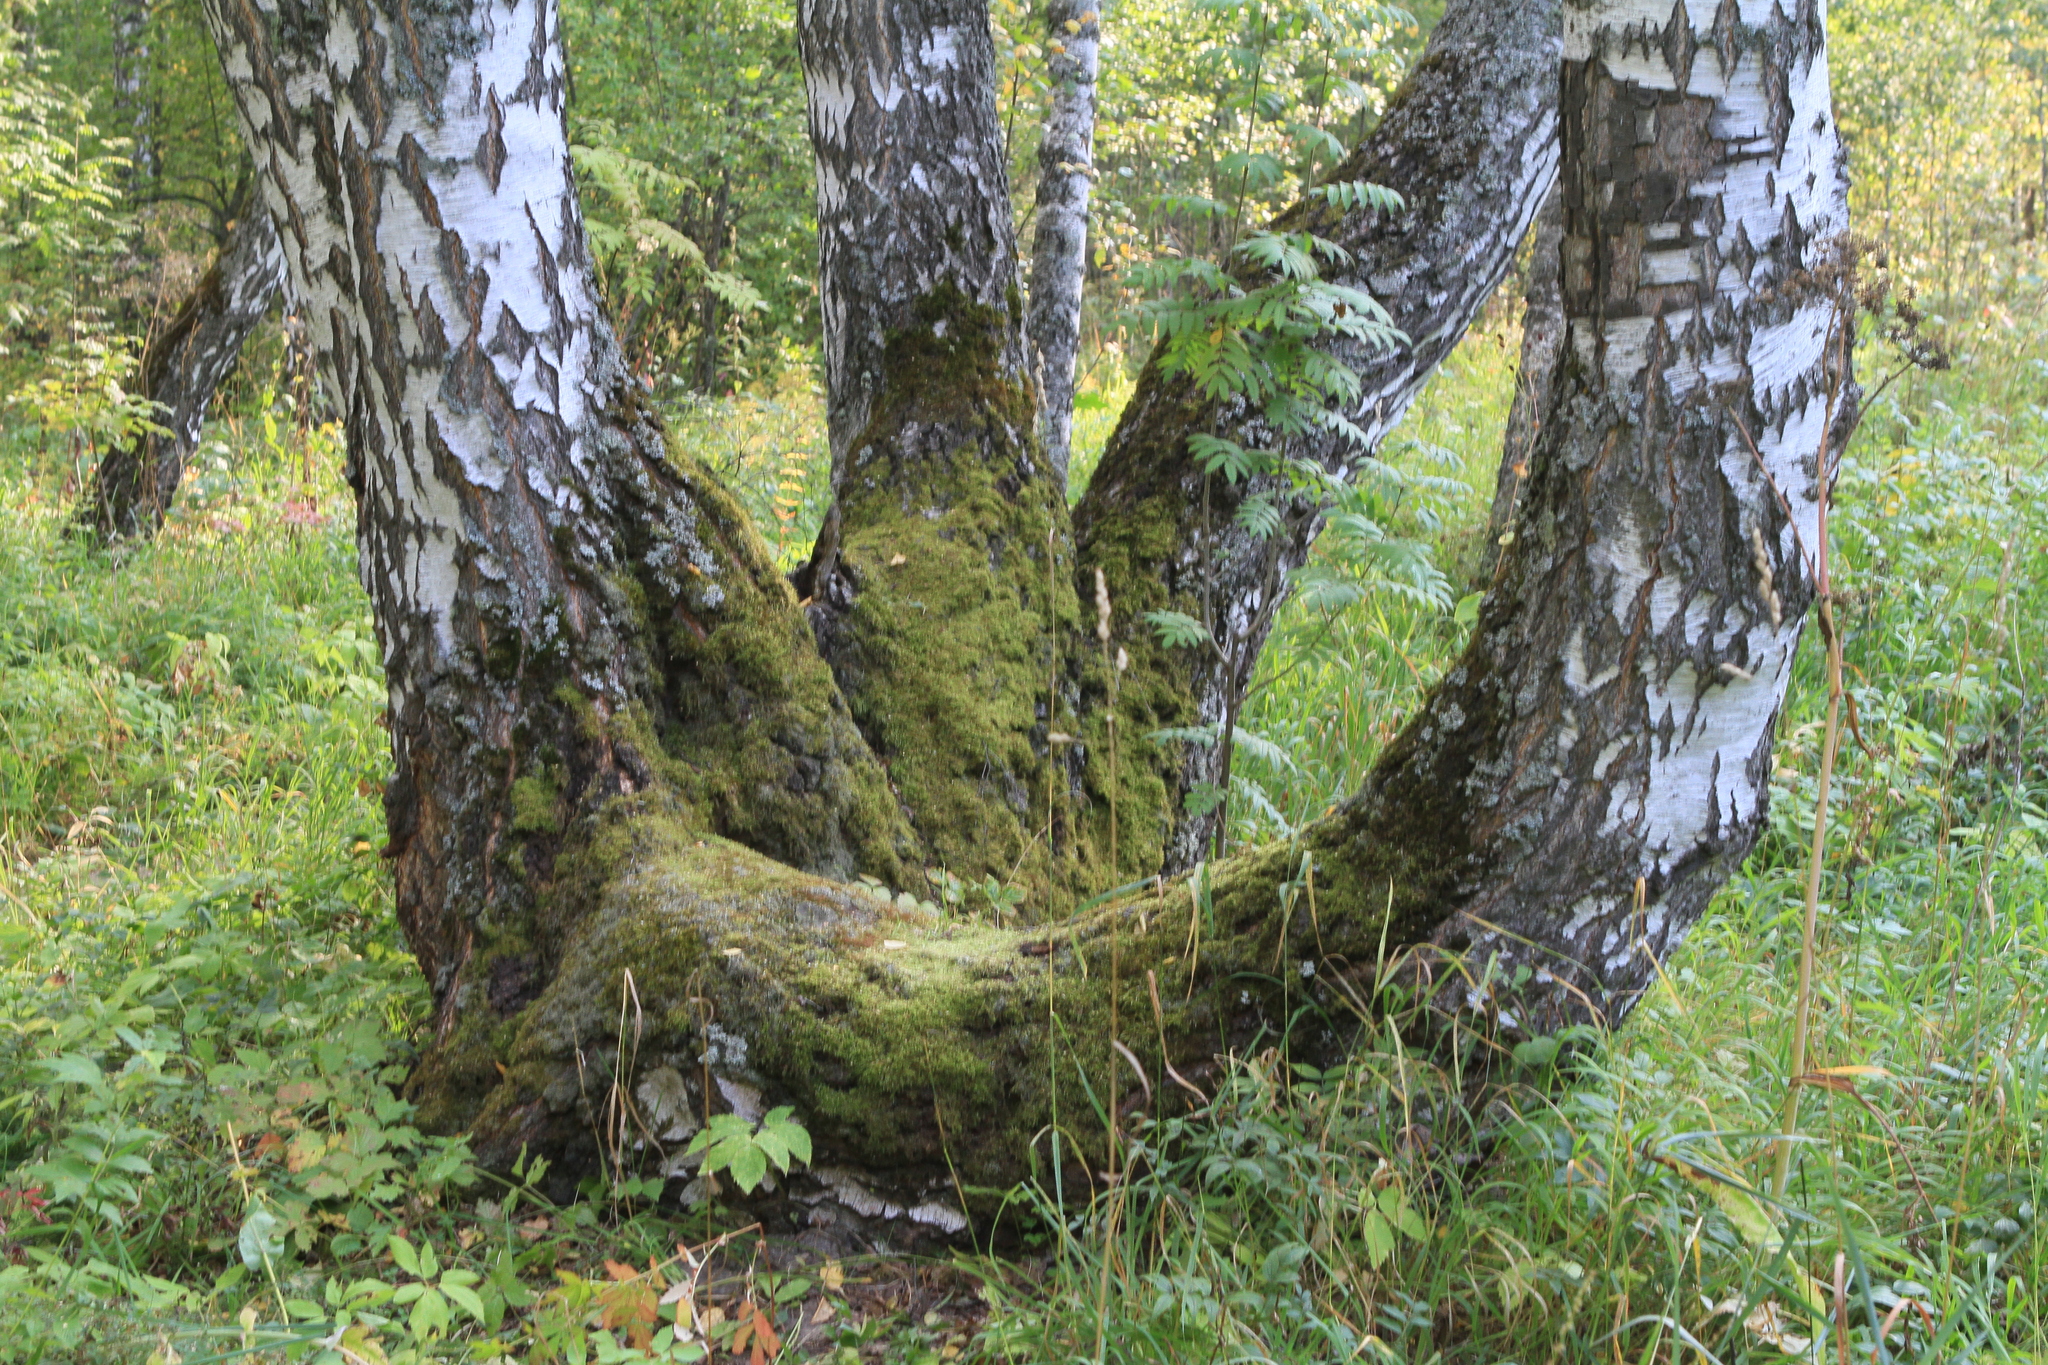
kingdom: Plantae
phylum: Tracheophyta
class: Magnoliopsida
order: Fagales
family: Betulaceae
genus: Betula
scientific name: Betula pendula
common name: Silver birch
